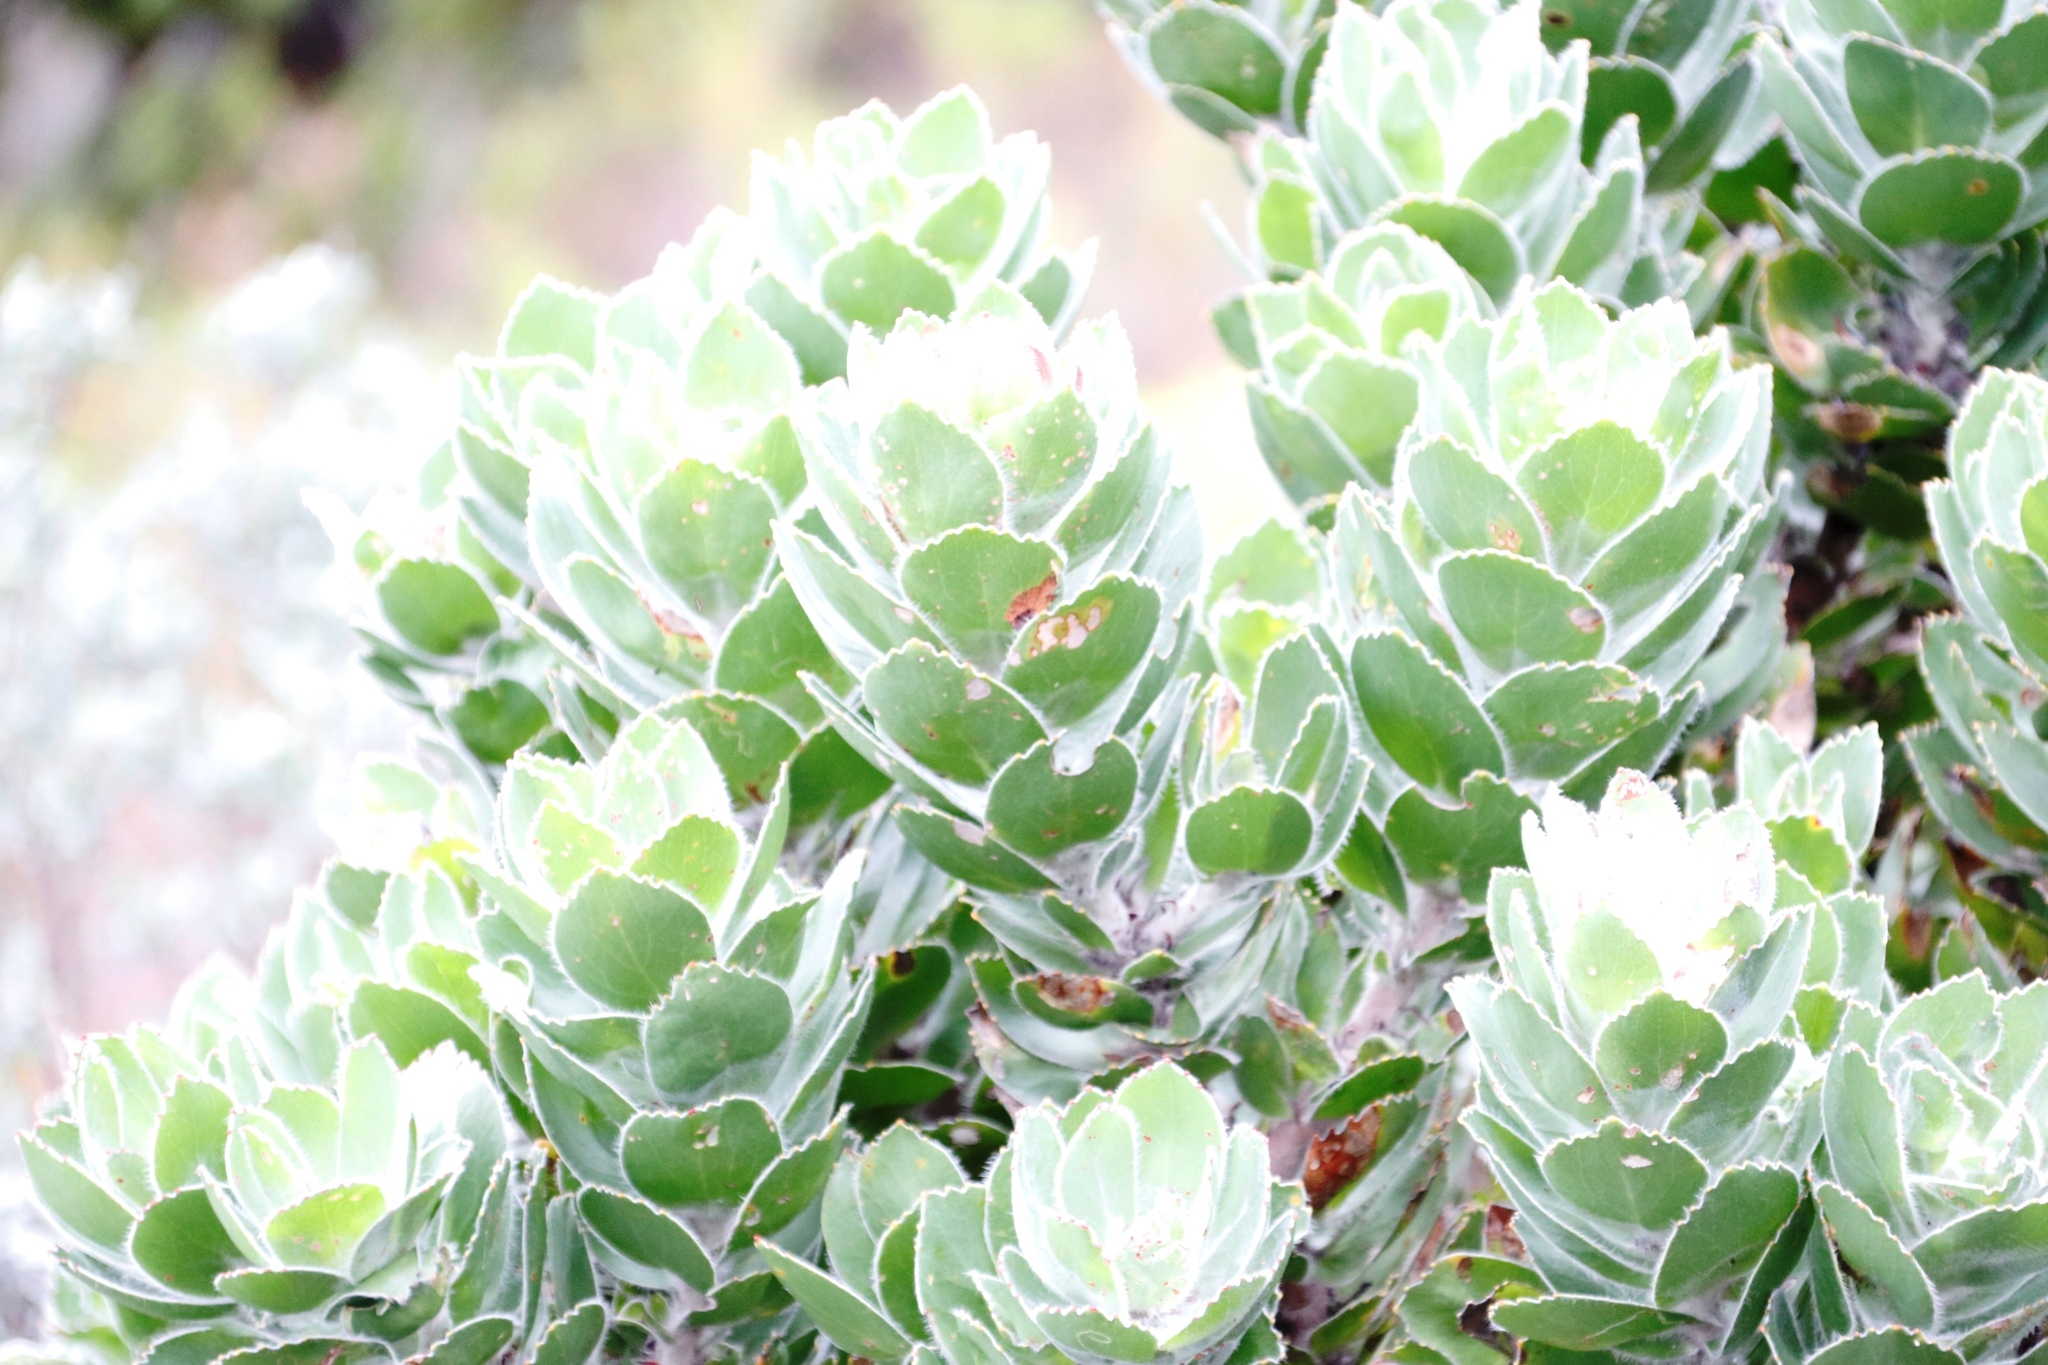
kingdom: Plantae
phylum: Tracheophyta
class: Magnoliopsida
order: Proteales
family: Proteaceae
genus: Leucospermum
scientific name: Leucospermum conocarpodendron
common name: Tree pincushion
